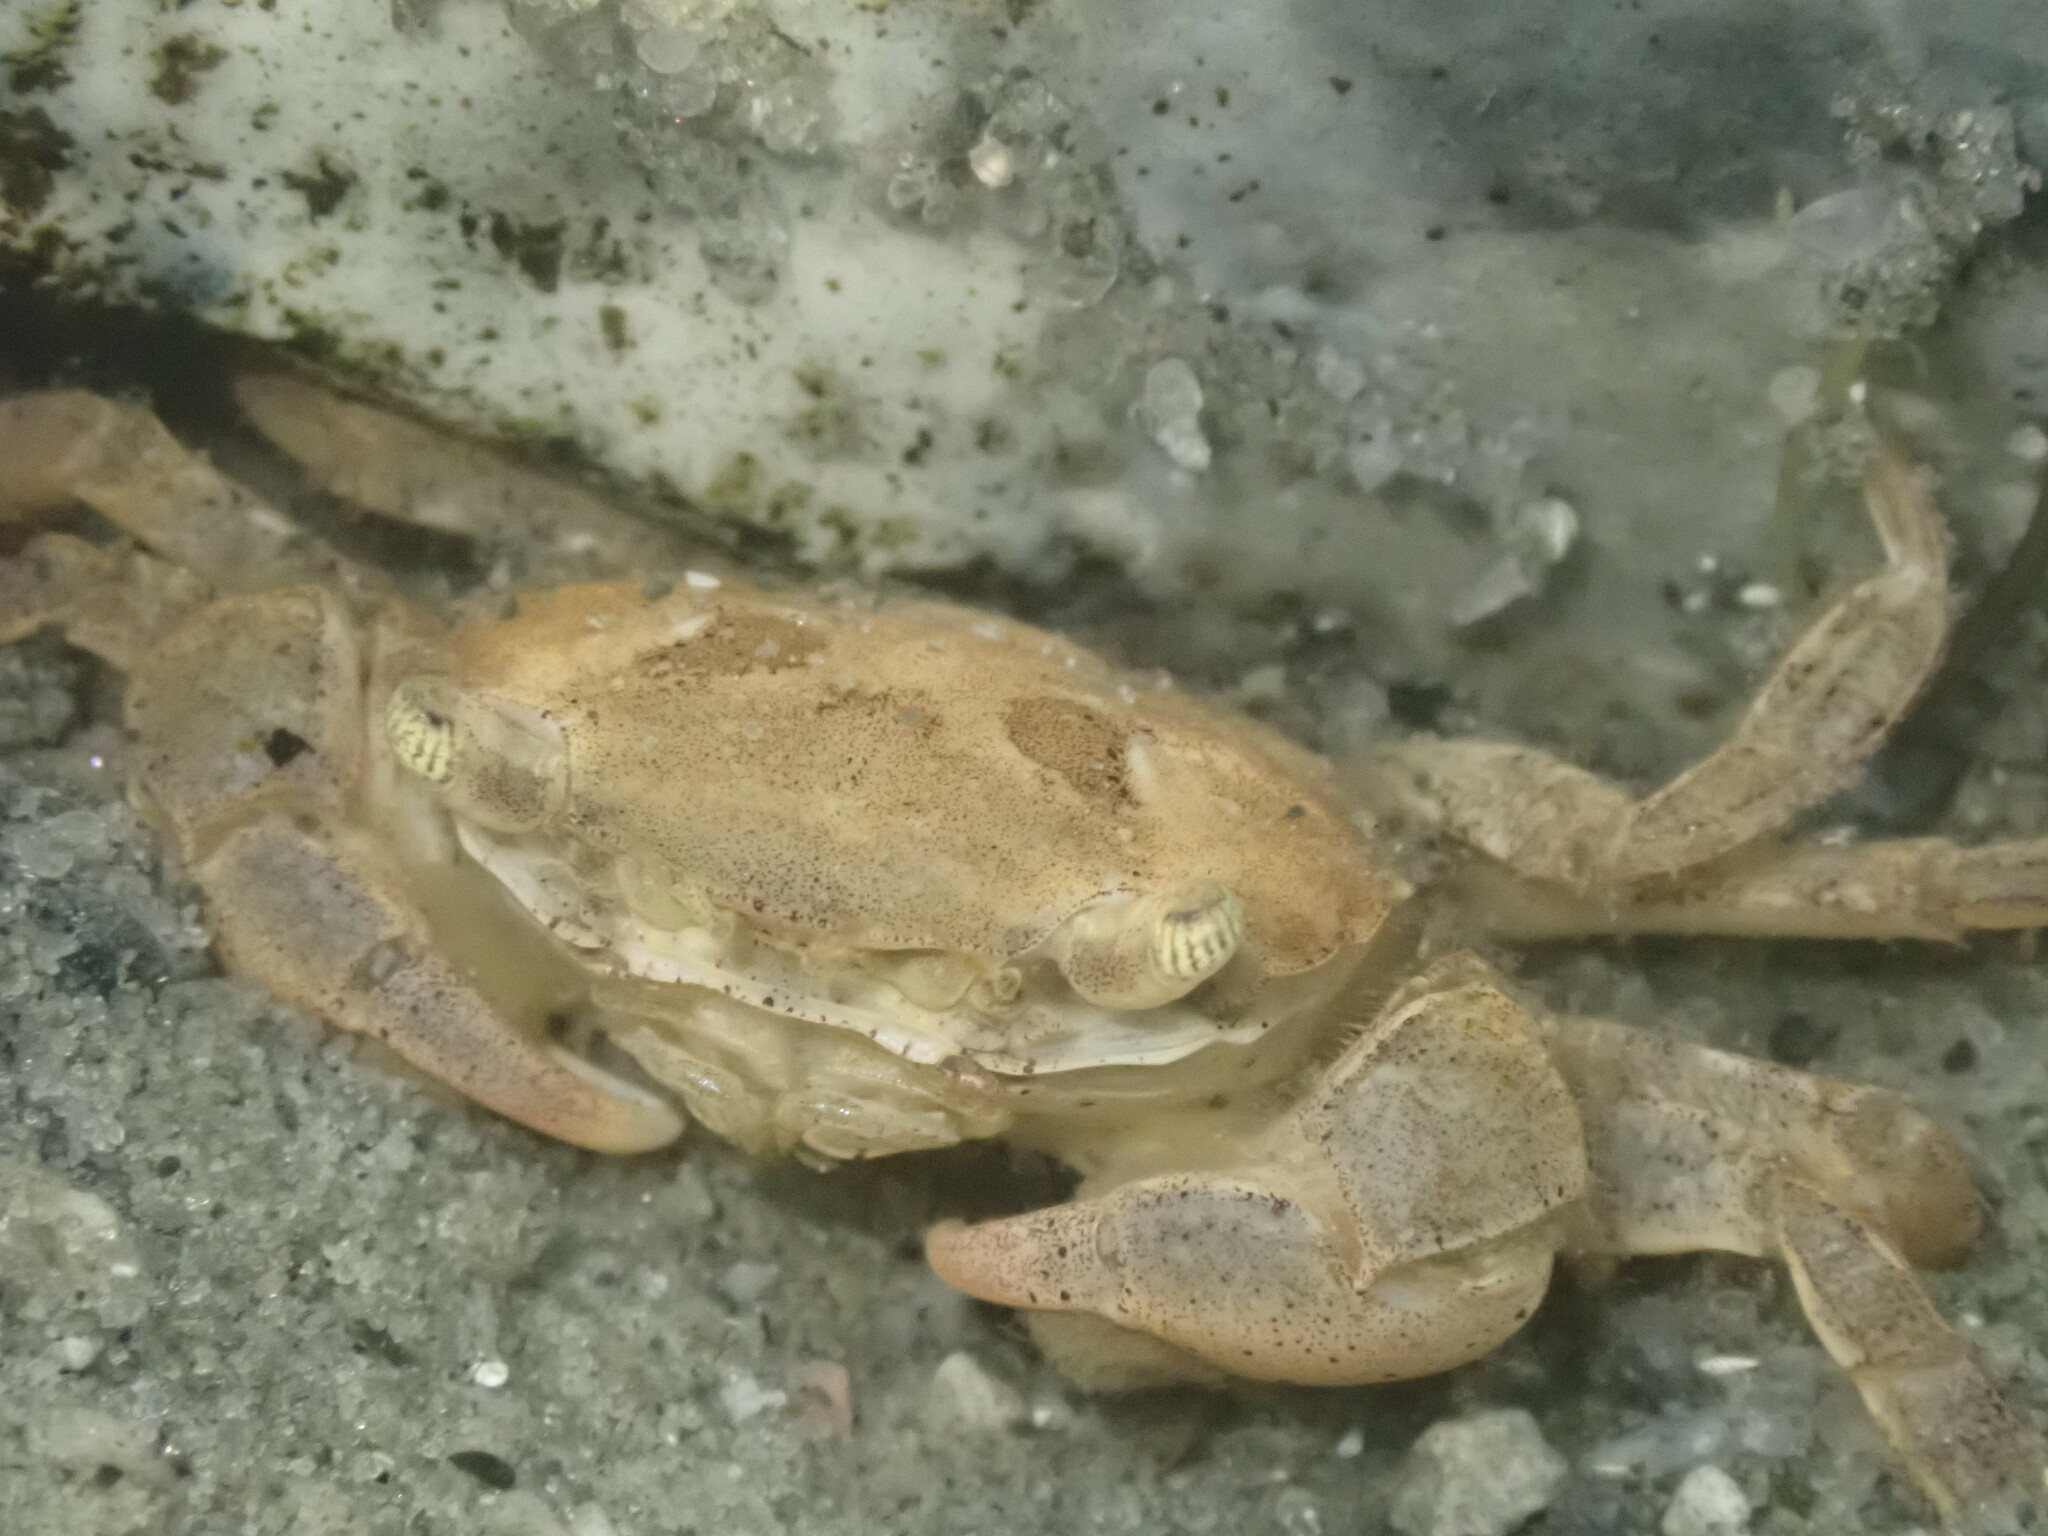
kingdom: Animalia
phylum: Arthropoda
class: Malacostraca
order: Decapoda
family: Varunidae
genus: Hemigrapsus
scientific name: Hemigrapsus takanoi
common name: Asian brush crab
